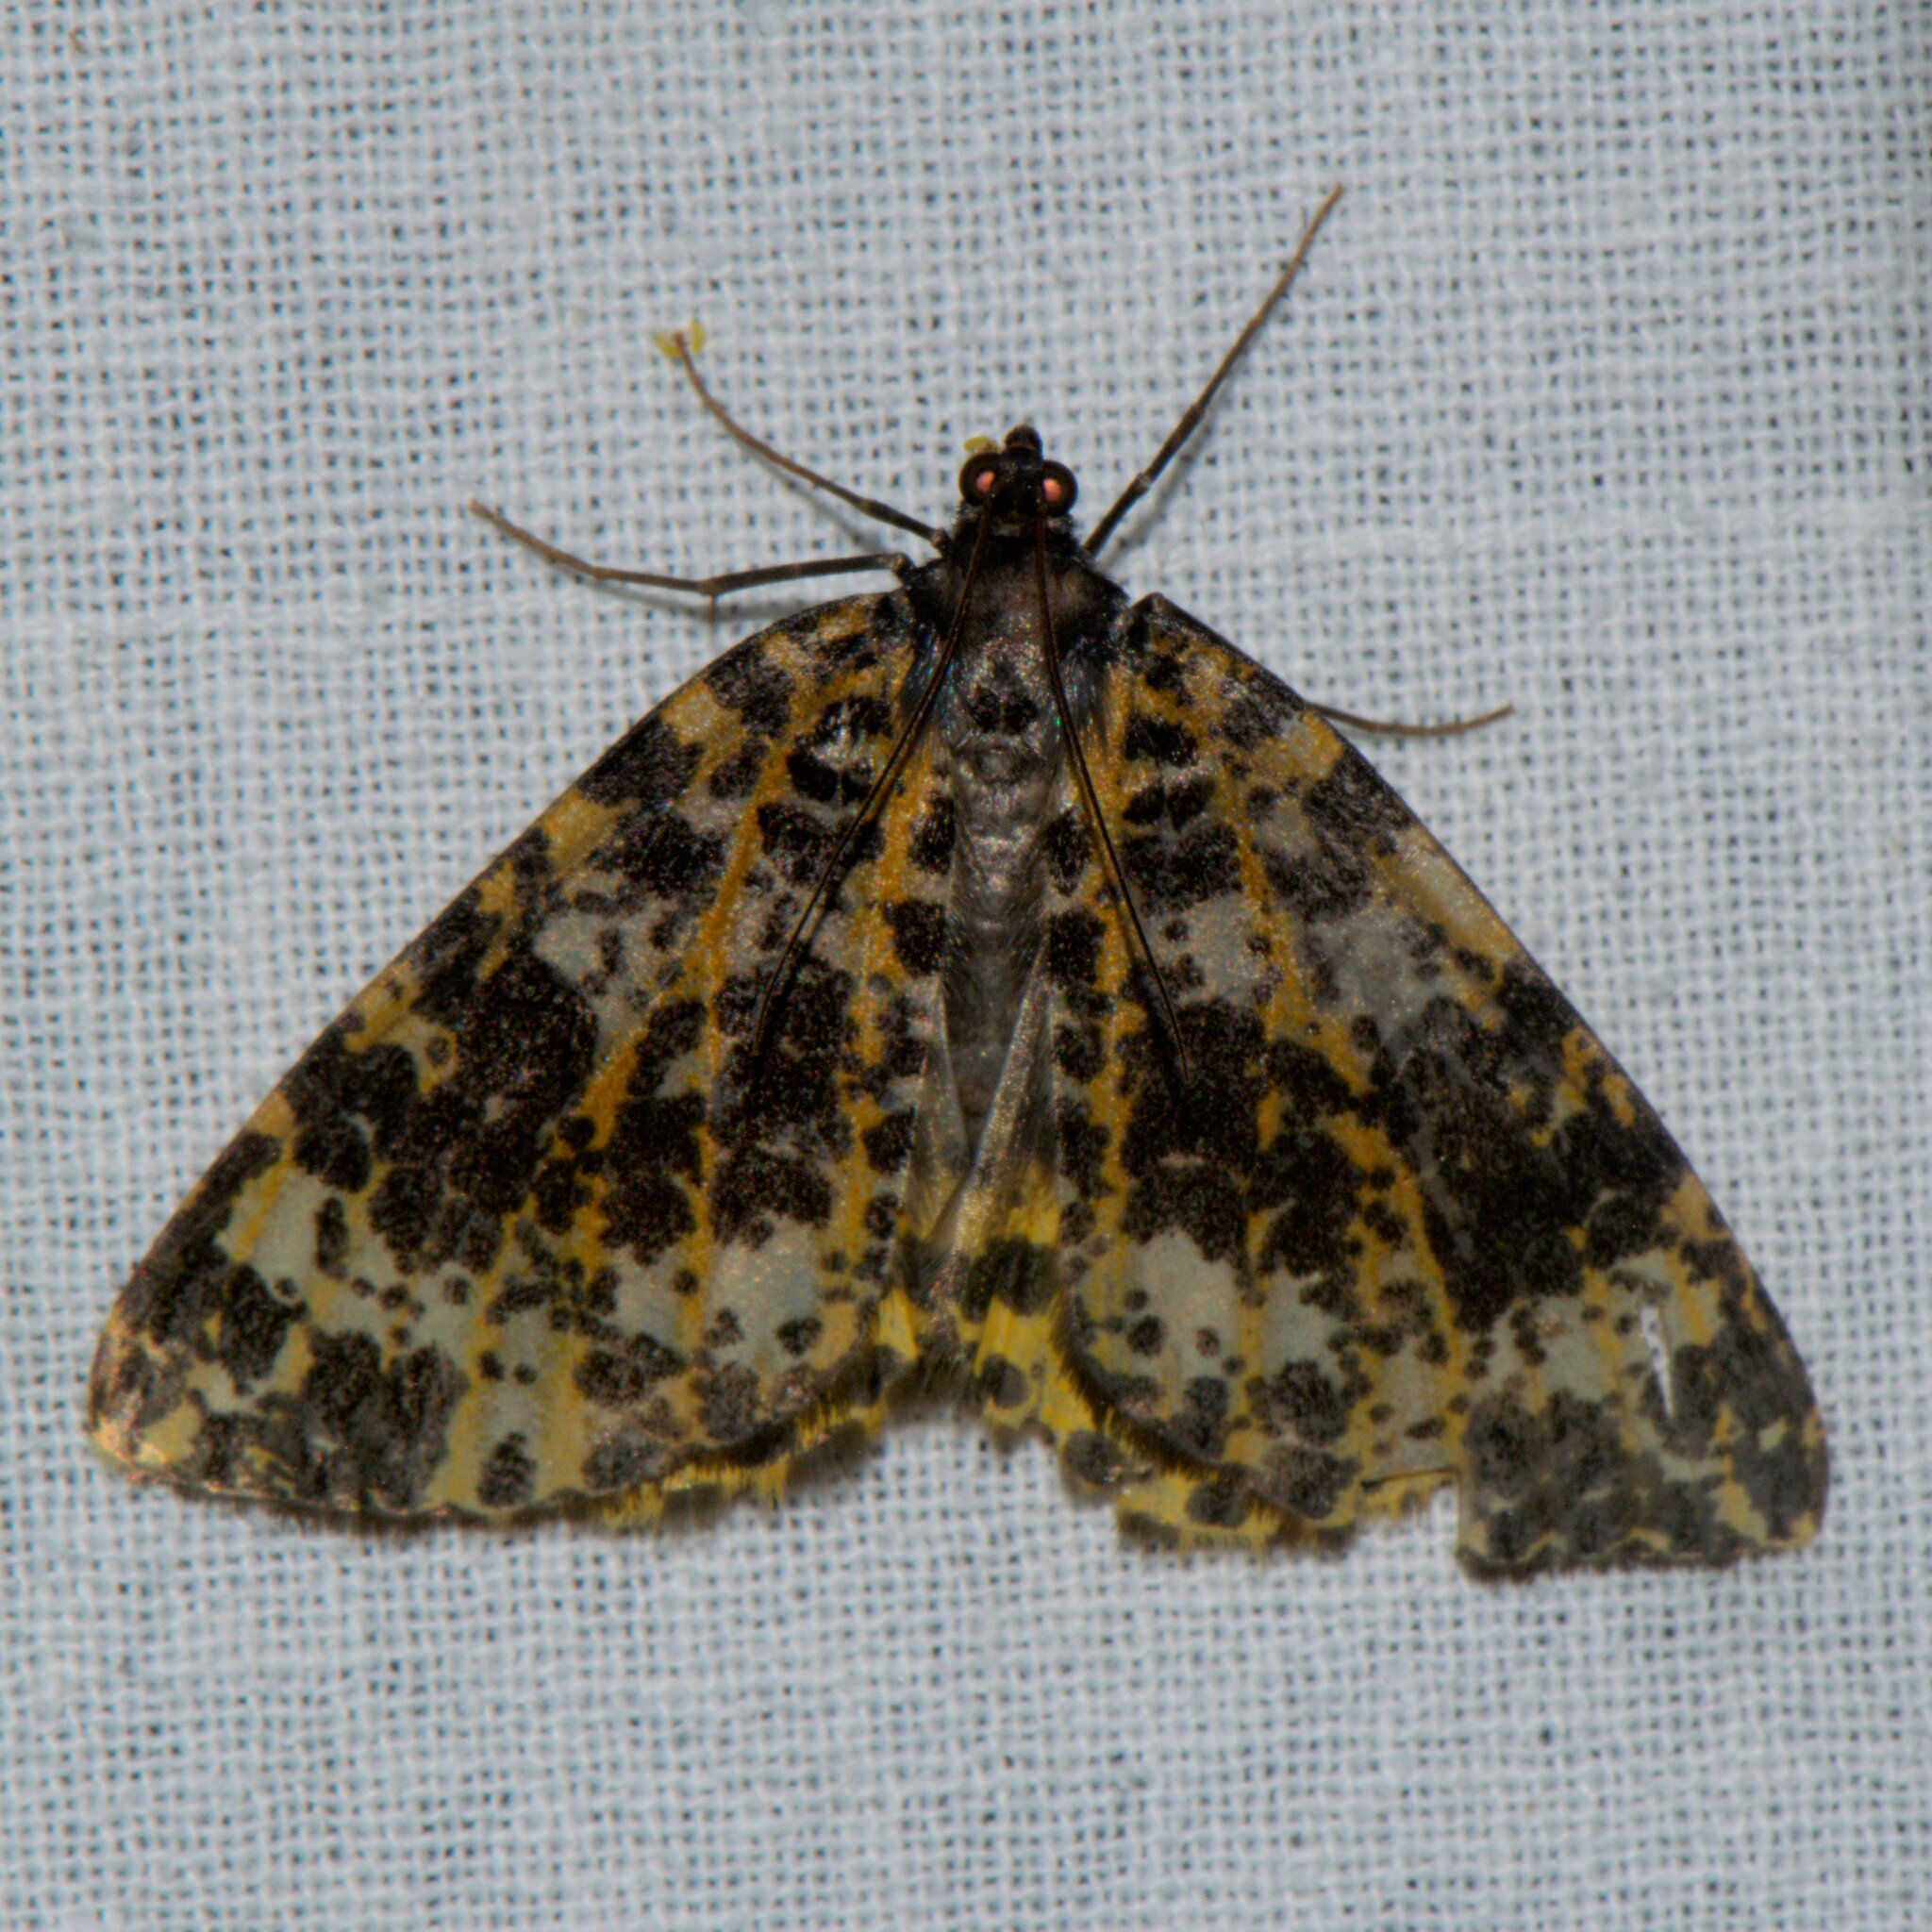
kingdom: Animalia
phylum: Arthropoda
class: Insecta
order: Lepidoptera
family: Geometridae
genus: Arichanna
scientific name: Arichanna sparsa
